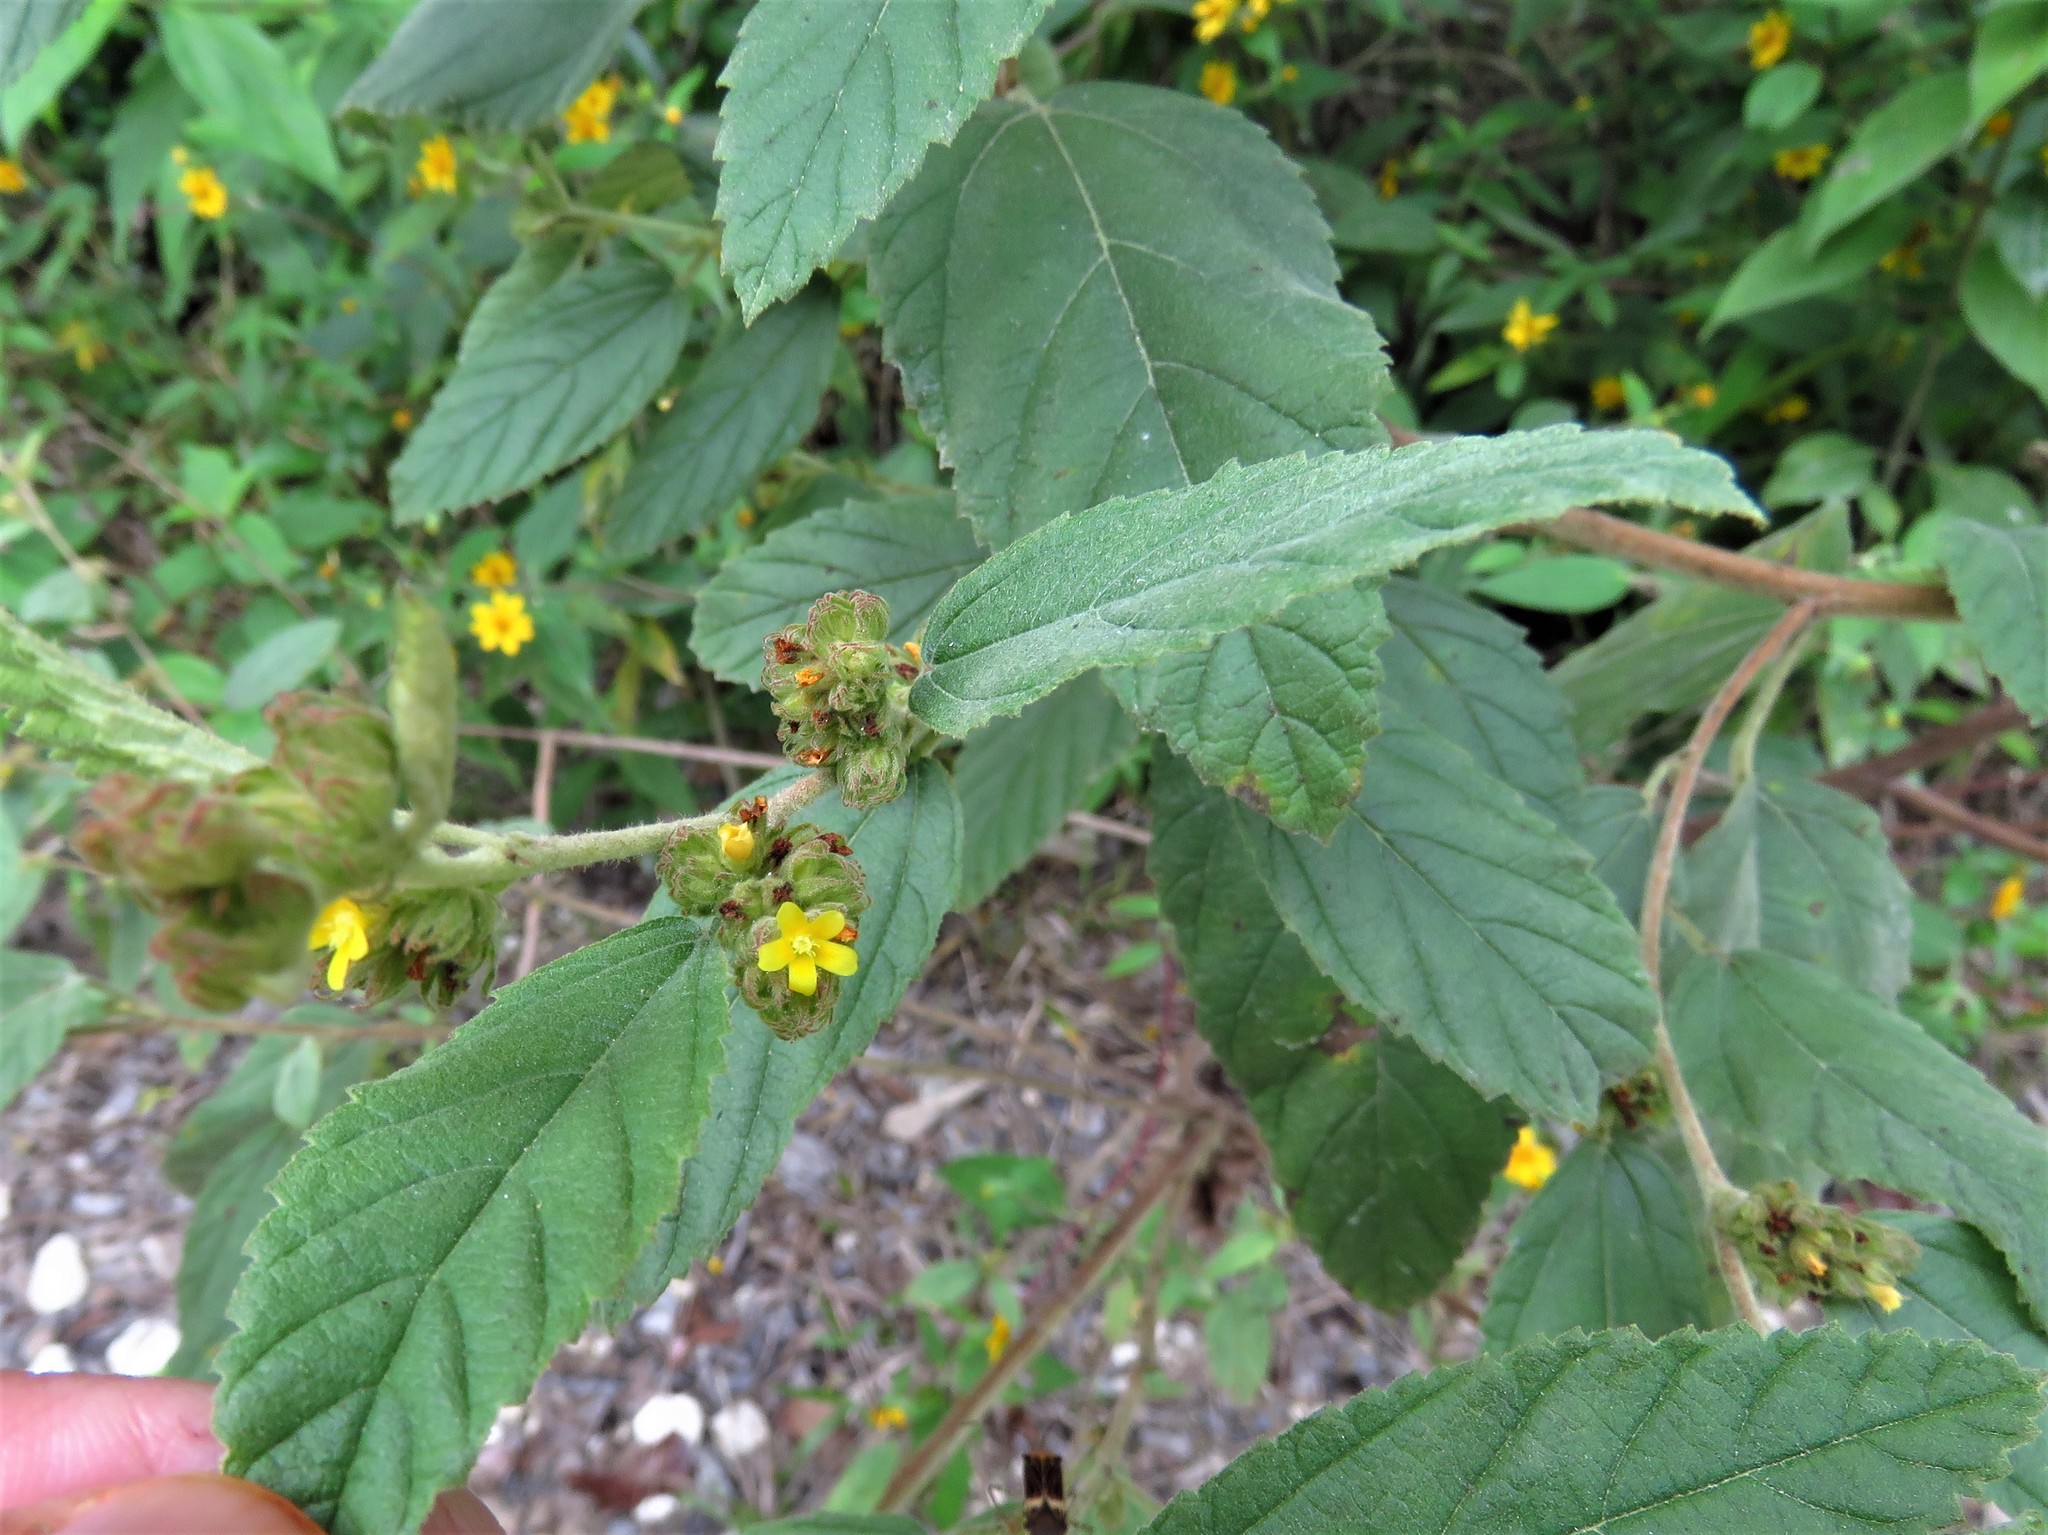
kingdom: Plantae
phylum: Tracheophyta
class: Magnoliopsida
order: Malvales
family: Malvaceae
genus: Waltheria
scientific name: Waltheria indica
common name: Leather-coat
